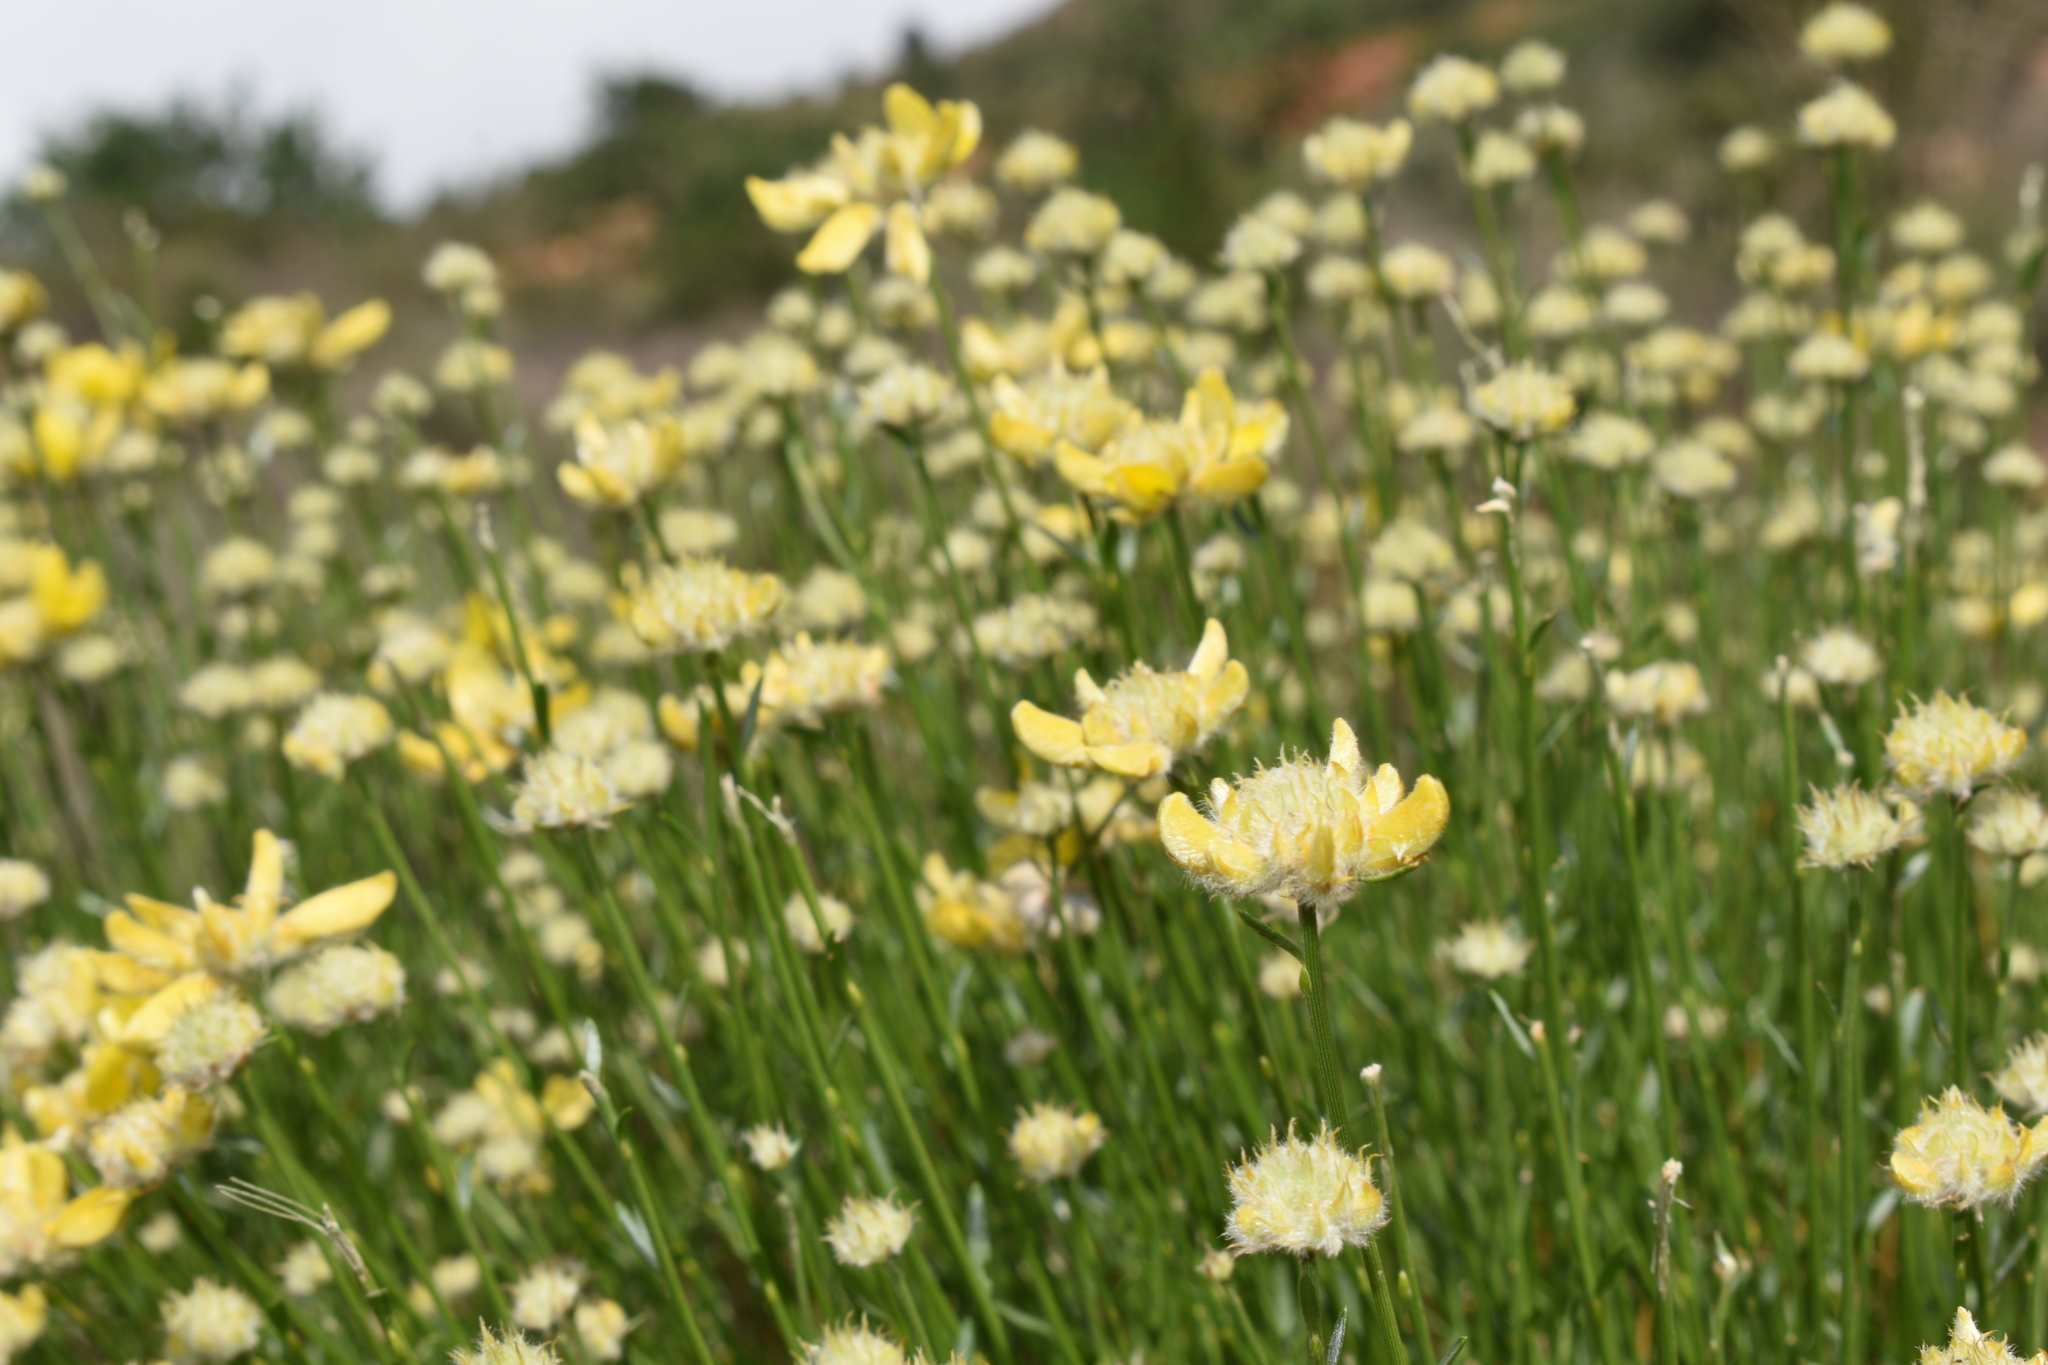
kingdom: Plantae
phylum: Tracheophyta
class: Magnoliopsida
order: Fabales
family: Fabaceae
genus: Genista
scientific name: Genista umbellata
